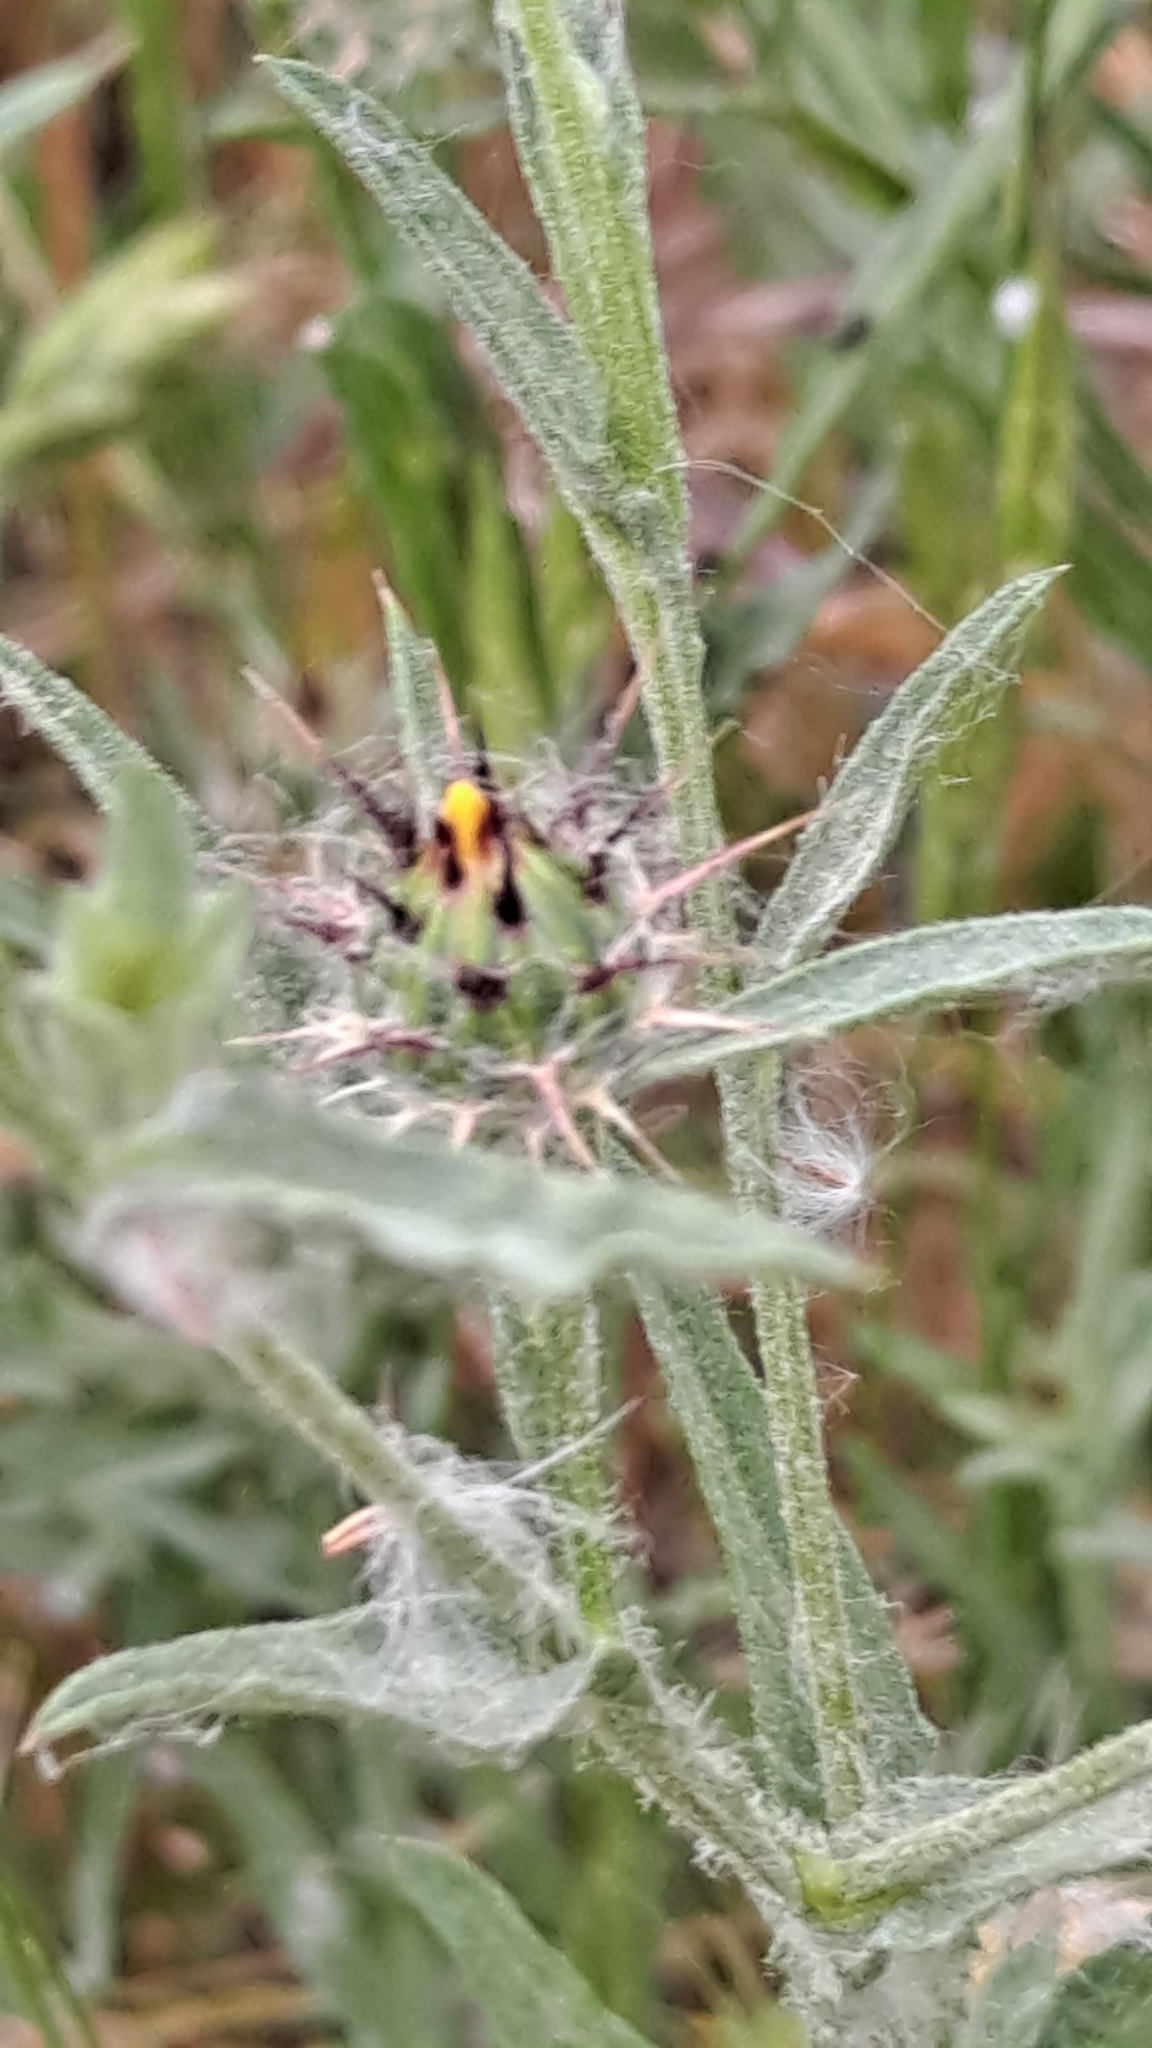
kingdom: Plantae
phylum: Tracheophyta
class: Magnoliopsida
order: Asterales
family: Asteraceae
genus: Centaurea
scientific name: Centaurea solstitialis
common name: Yellow star-thistle
